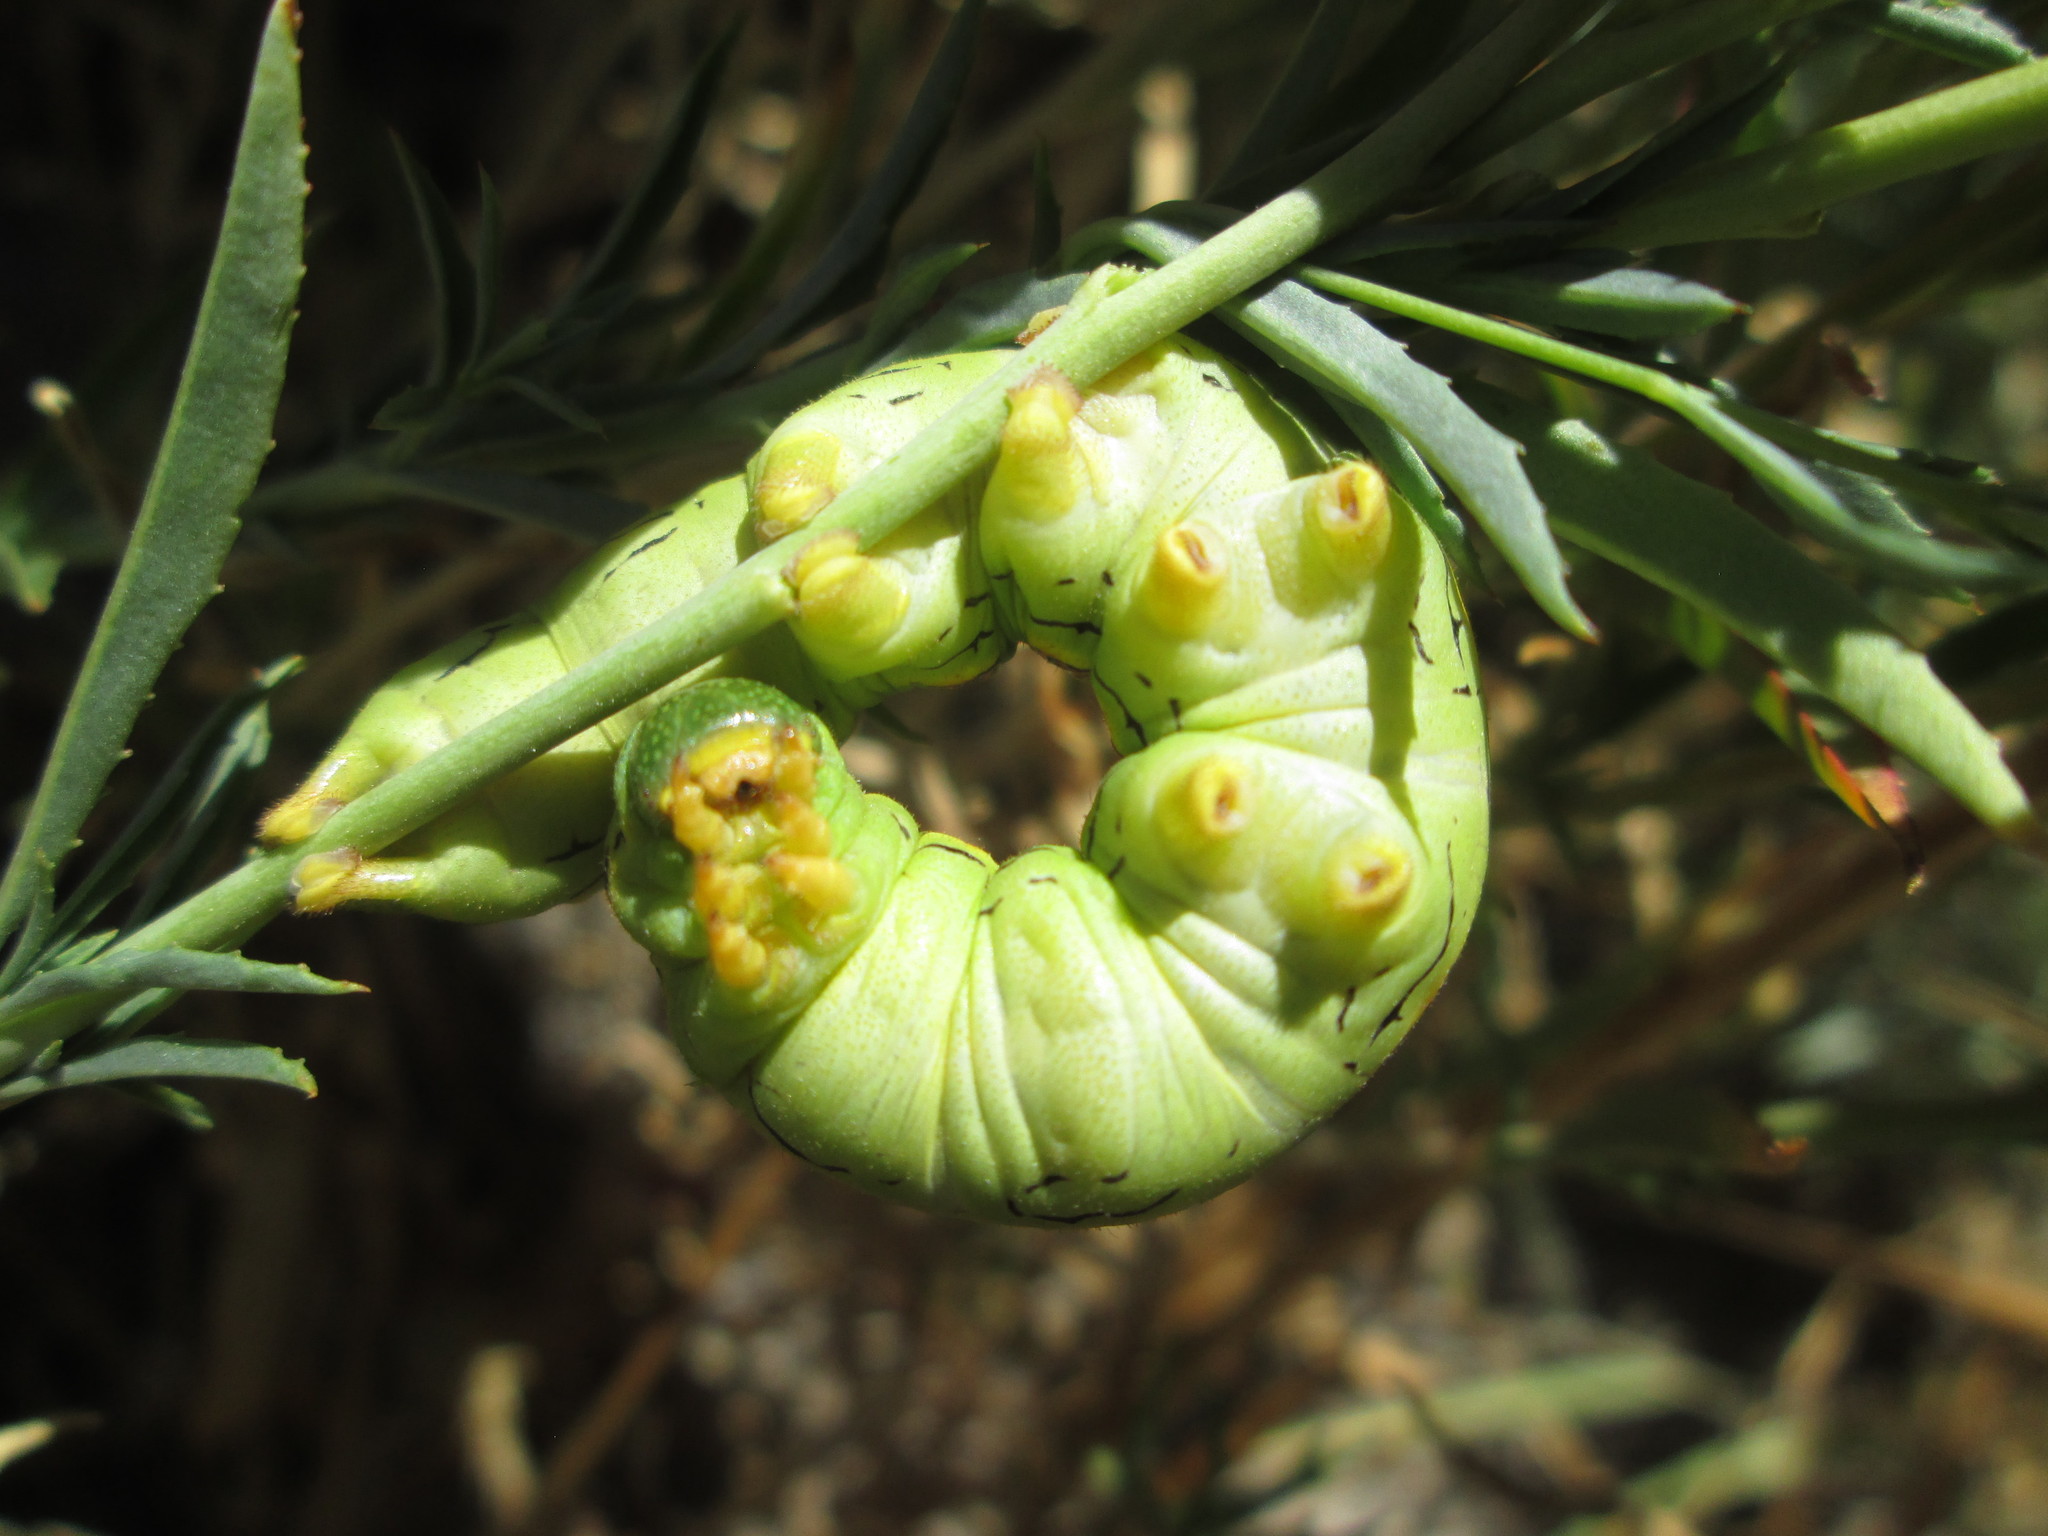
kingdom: Animalia
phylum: Arthropoda
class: Insecta
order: Lepidoptera
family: Sphingidae
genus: Hyles
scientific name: Hyles lineata
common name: White-lined sphinx
